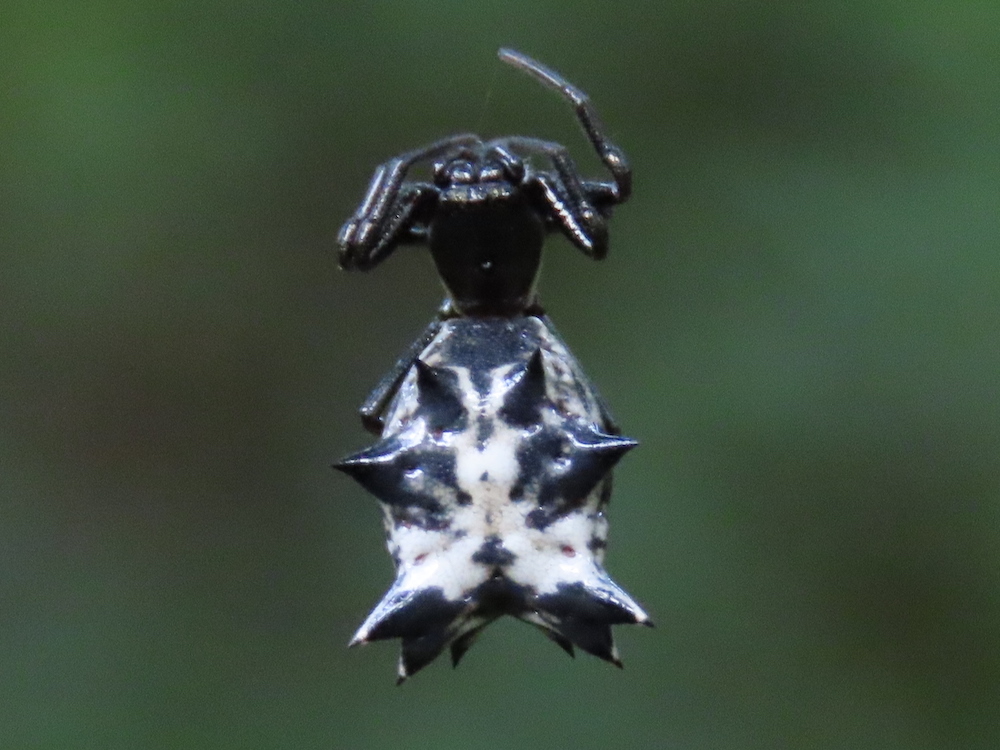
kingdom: Animalia
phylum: Arthropoda
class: Arachnida
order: Araneae
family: Araneidae
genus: Micrathena
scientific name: Micrathena gracilis
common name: Orb weavers
